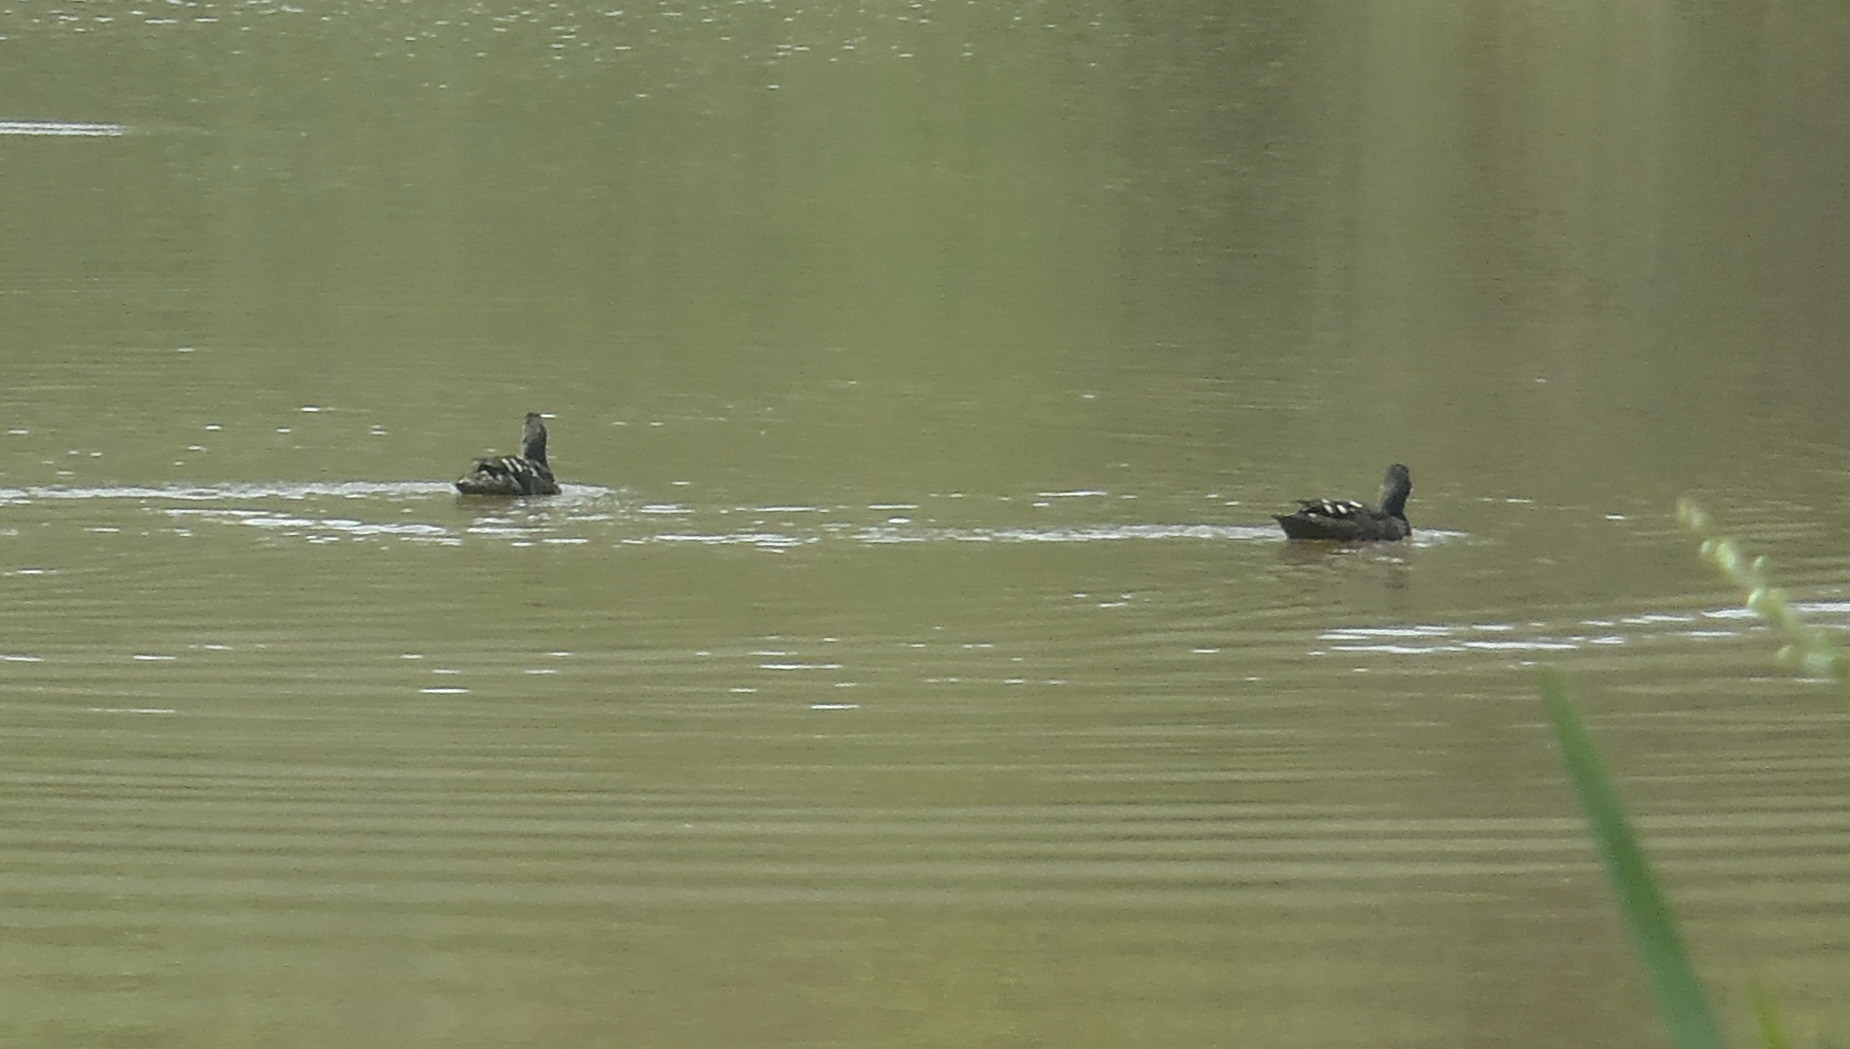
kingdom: Animalia
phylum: Chordata
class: Aves
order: Anseriformes
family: Anatidae
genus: Anas
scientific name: Anas sparsa
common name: African black duck
